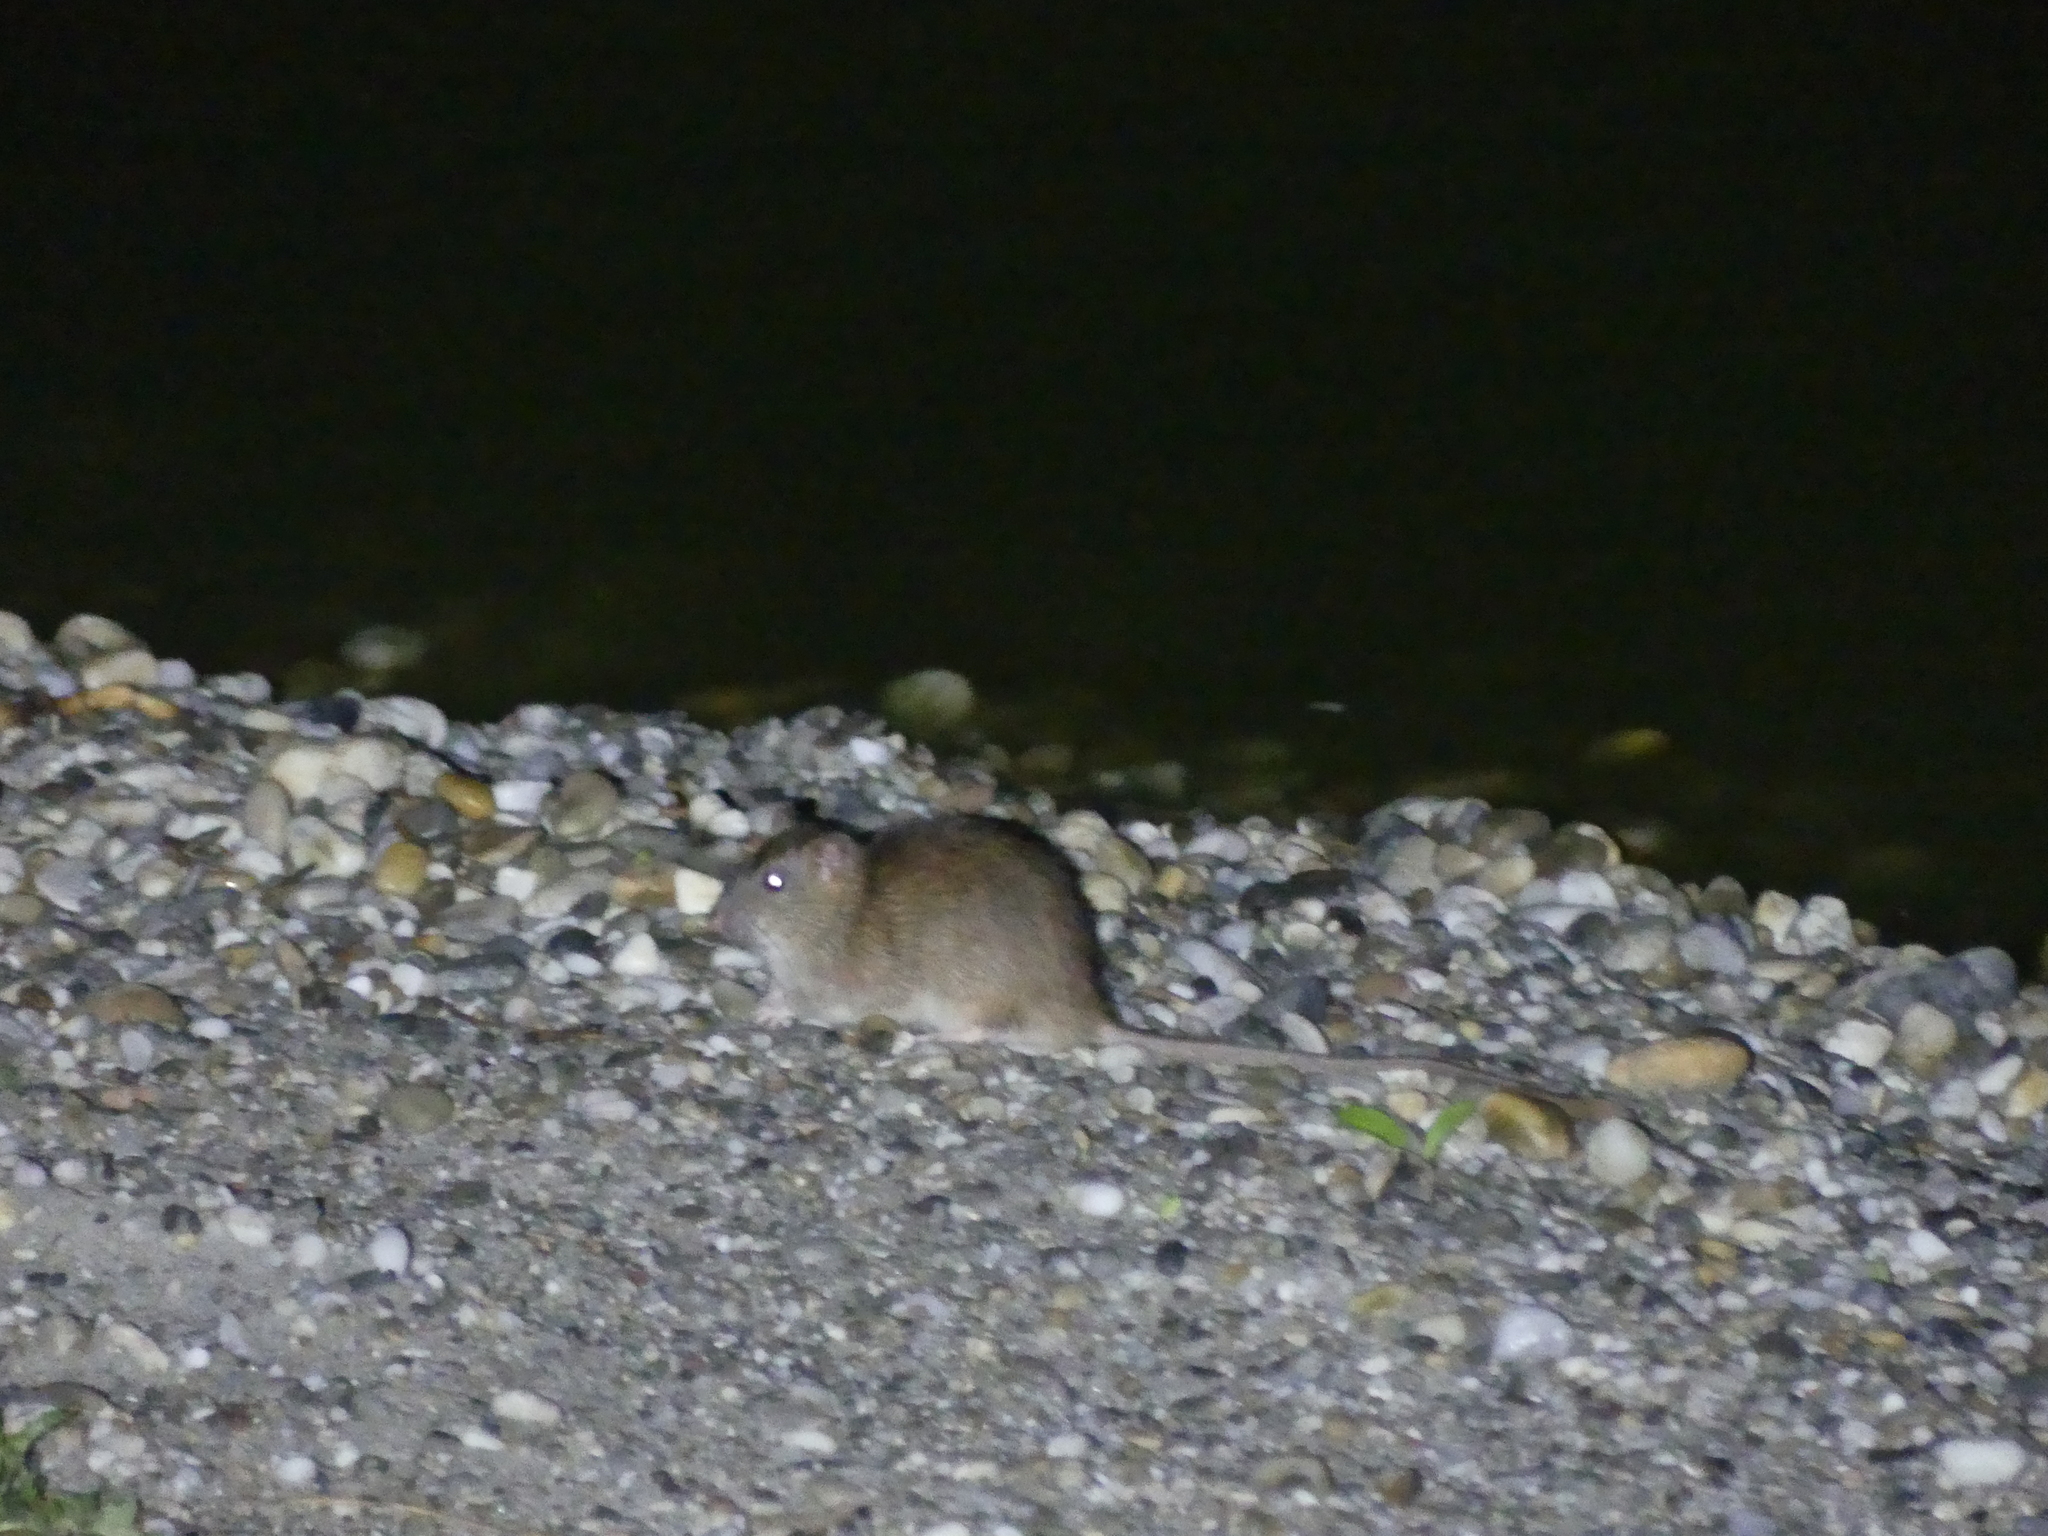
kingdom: Animalia
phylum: Chordata
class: Mammalia
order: Rodentia
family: Muridae
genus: Rattus
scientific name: Rattus norvegicus
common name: Brown rat
